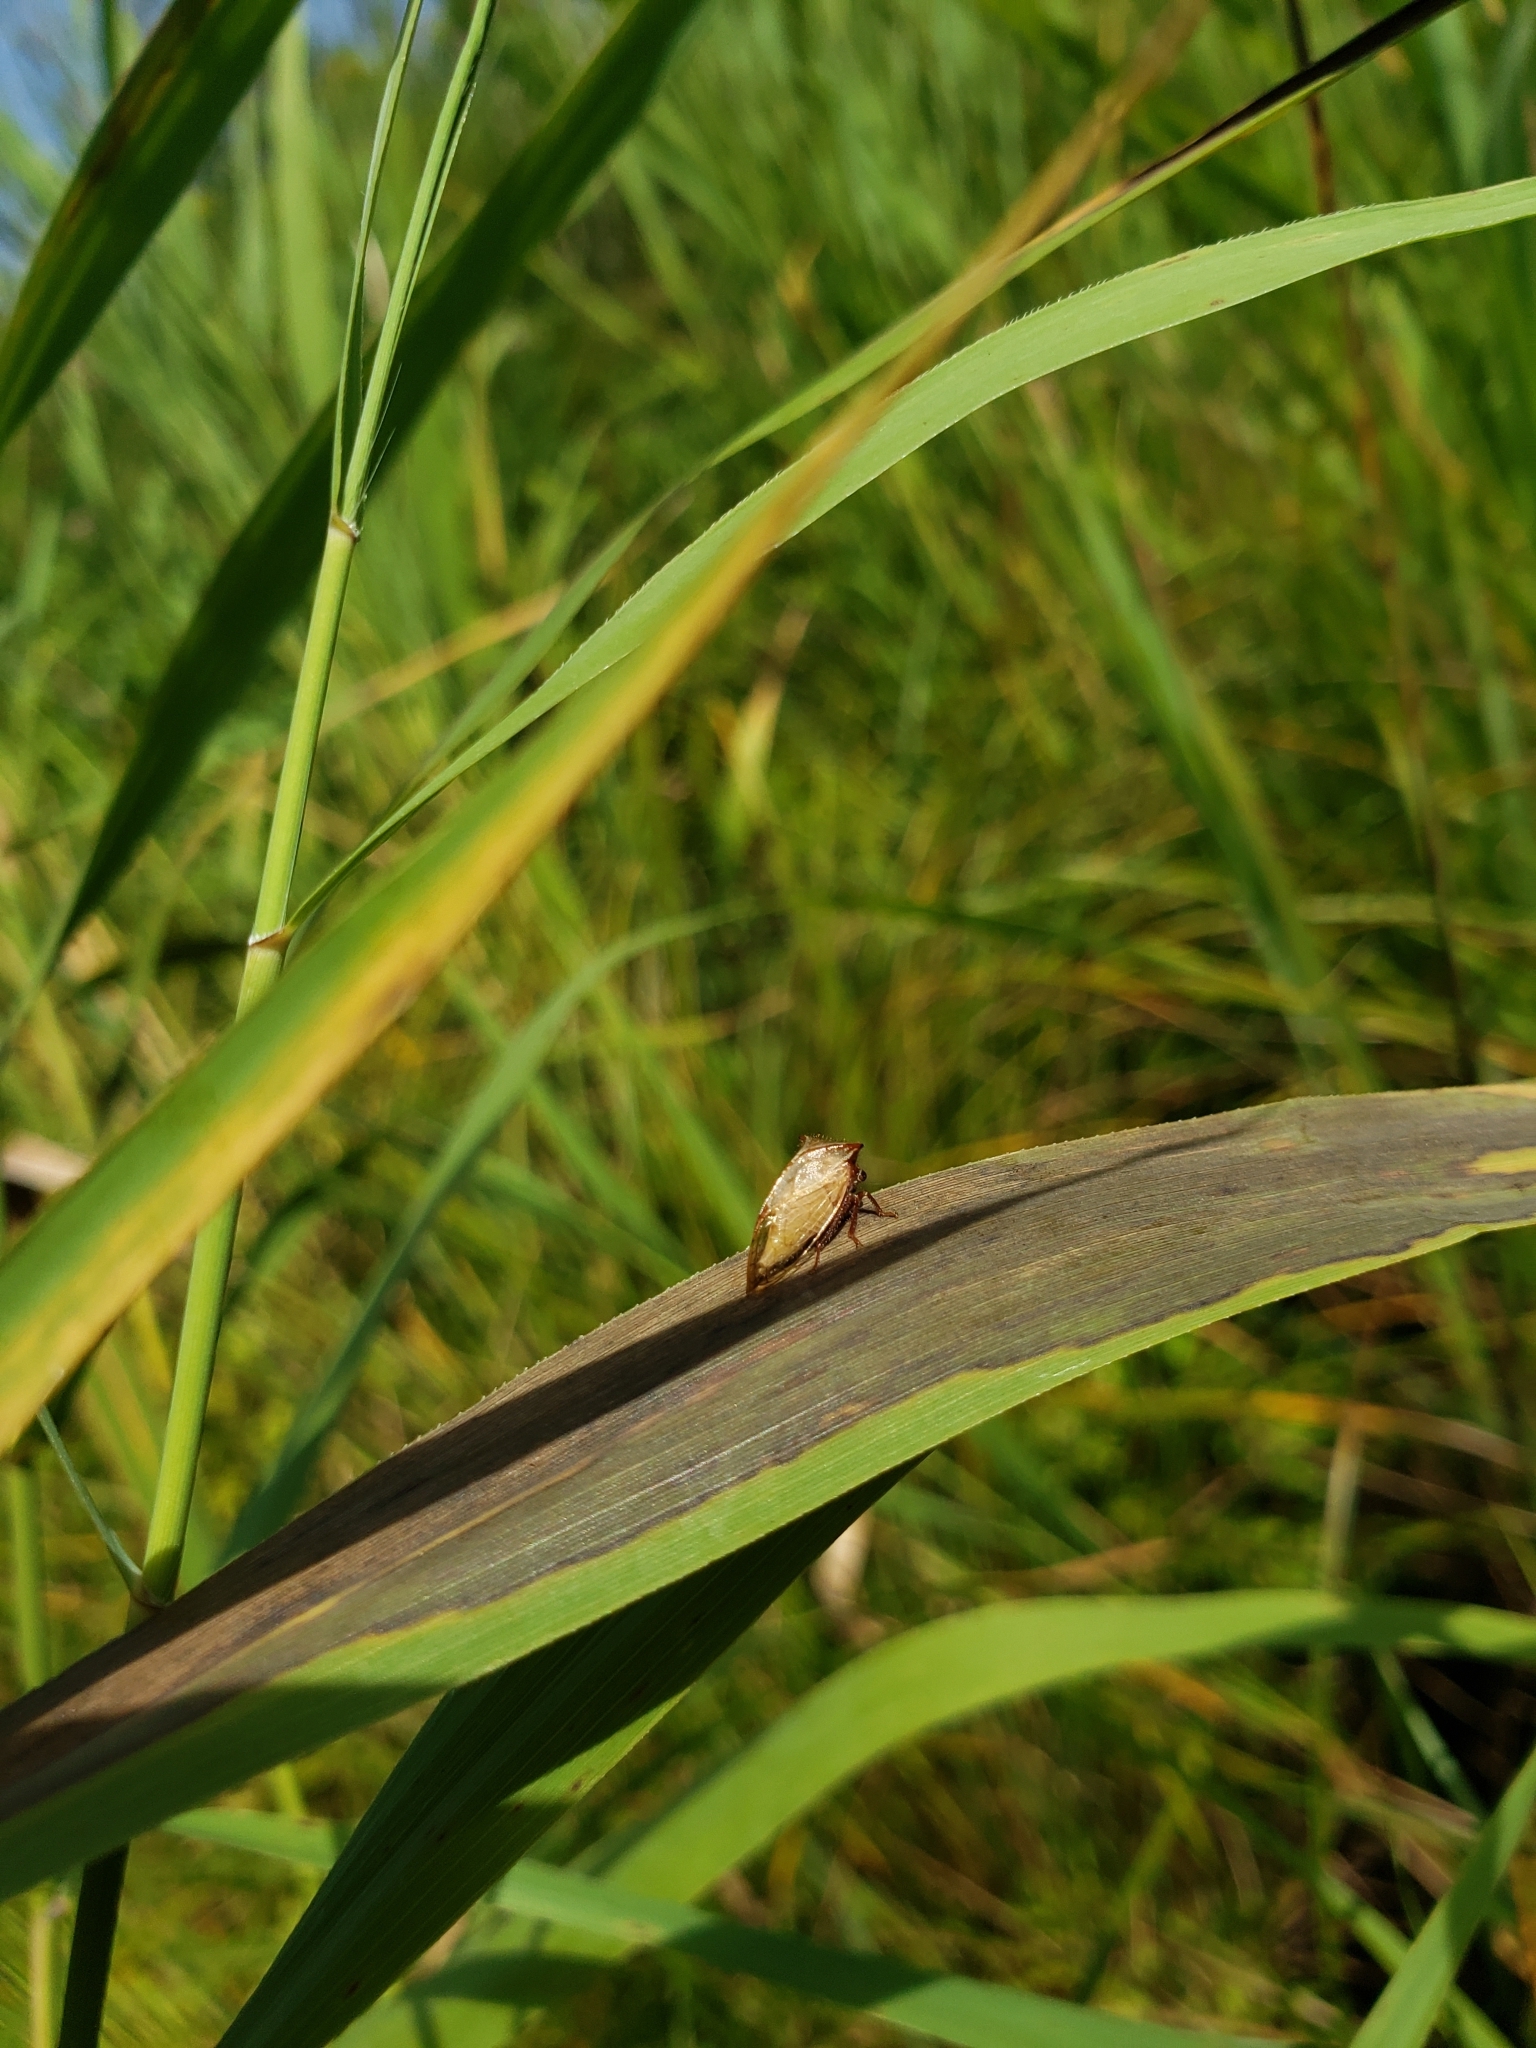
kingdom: Animalia
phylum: Arthropoda
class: Insecta
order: Hemiptera
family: Membracidae
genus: Stictocephala
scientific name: Stictocephala basalis
